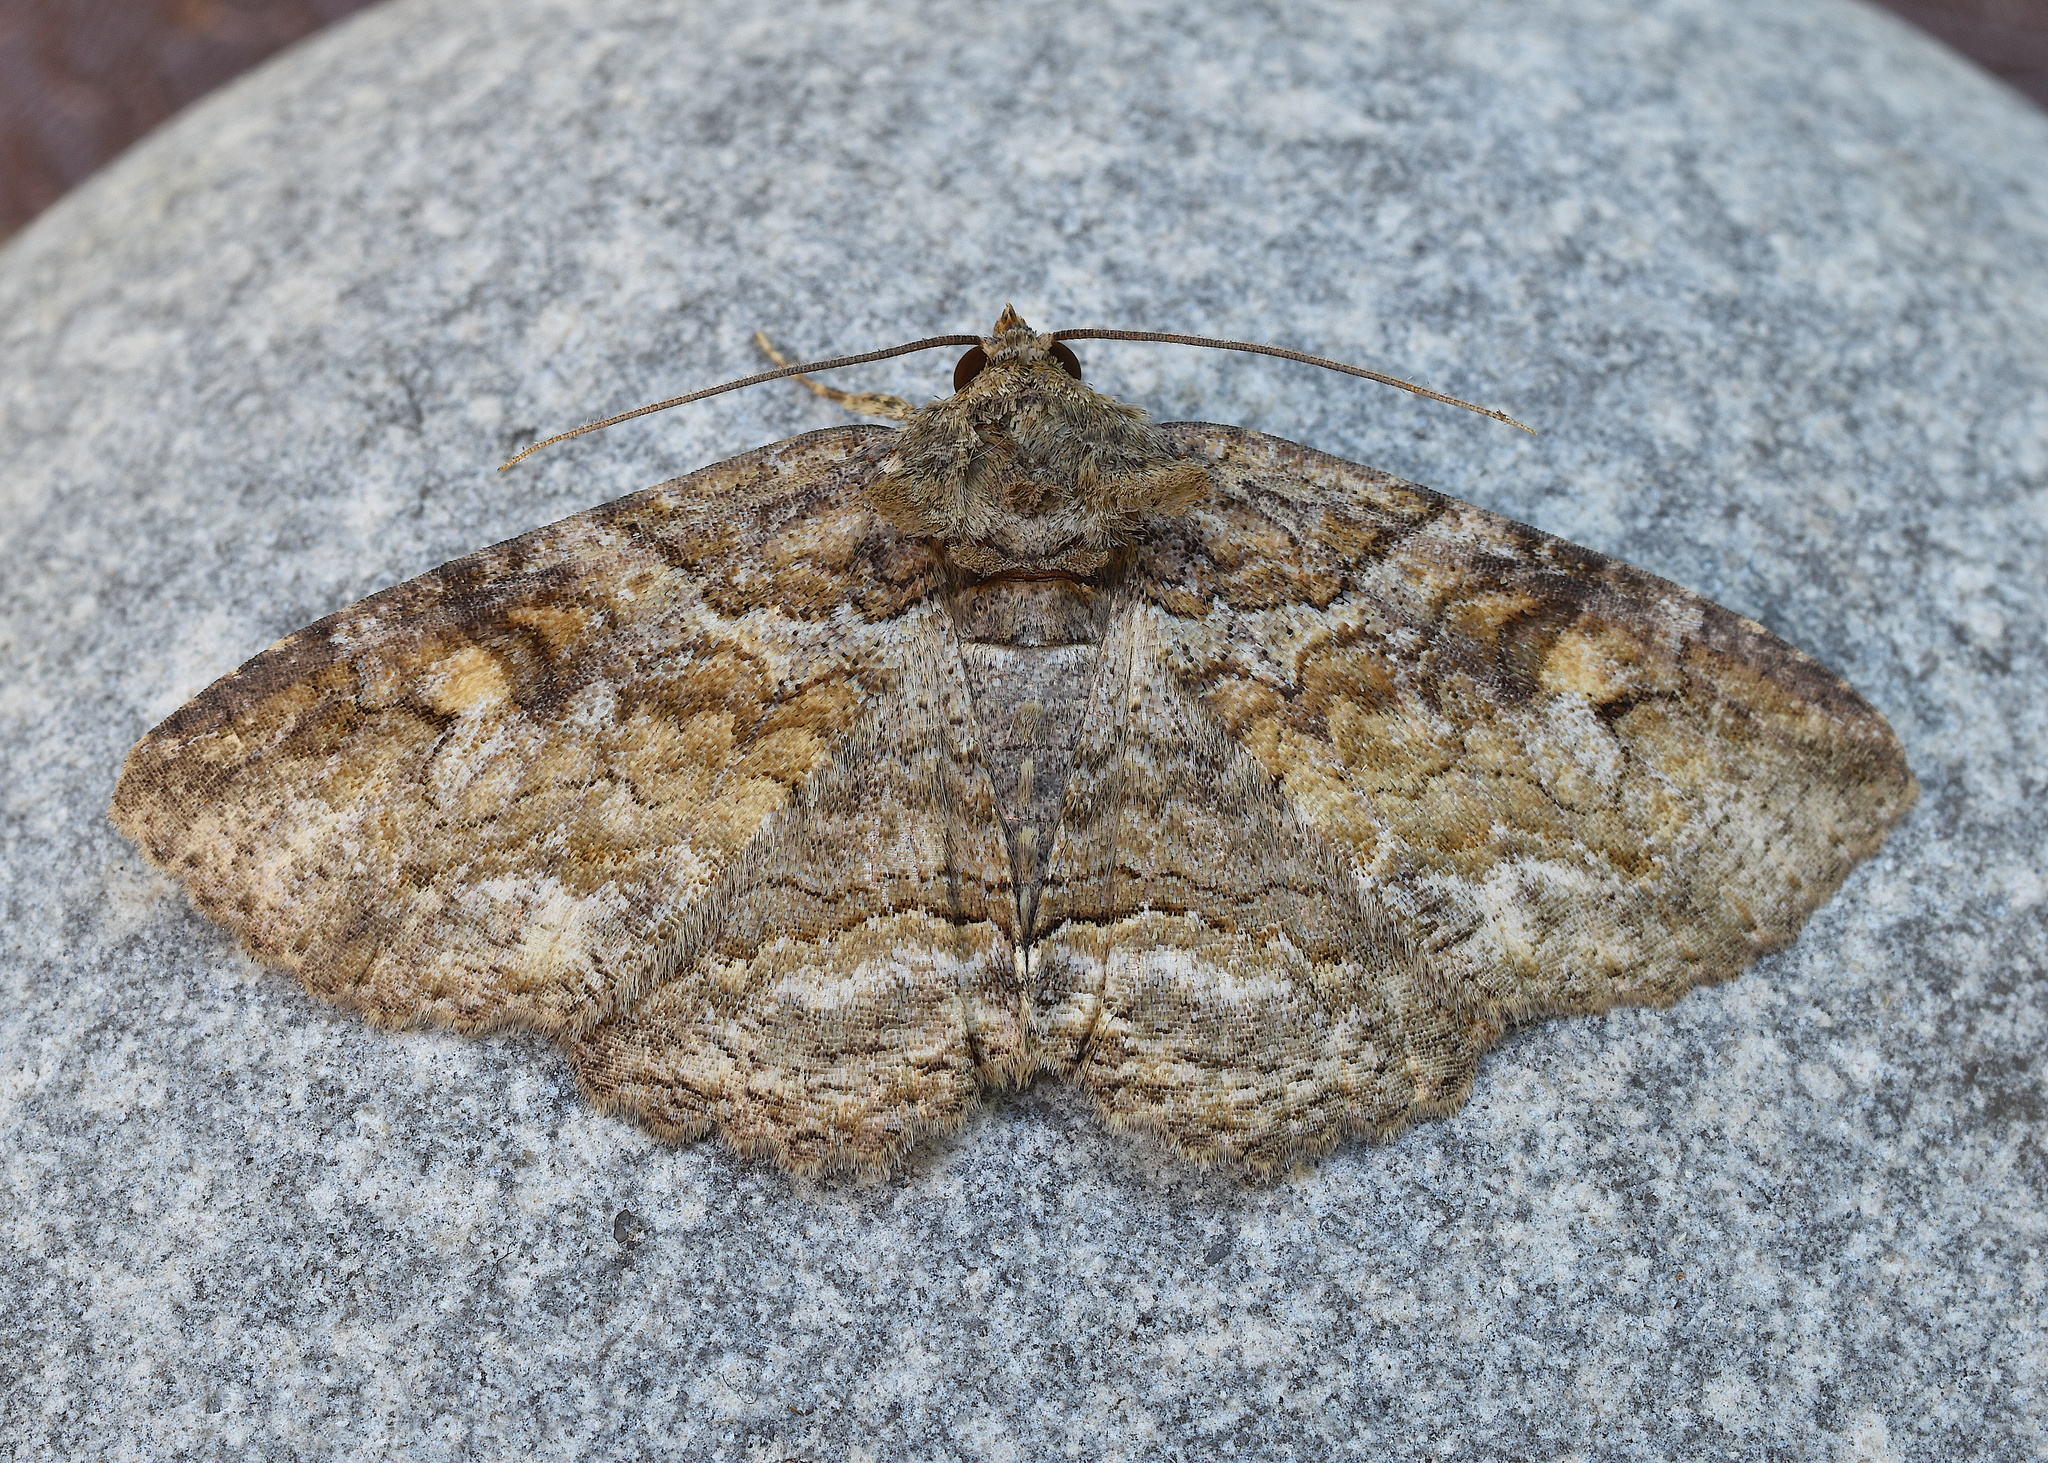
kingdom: Animalia
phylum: Arthropoda
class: Insecta
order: Lepidoptera
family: Erebidae
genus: Zale
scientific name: Zale galbanata
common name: Maple zale
